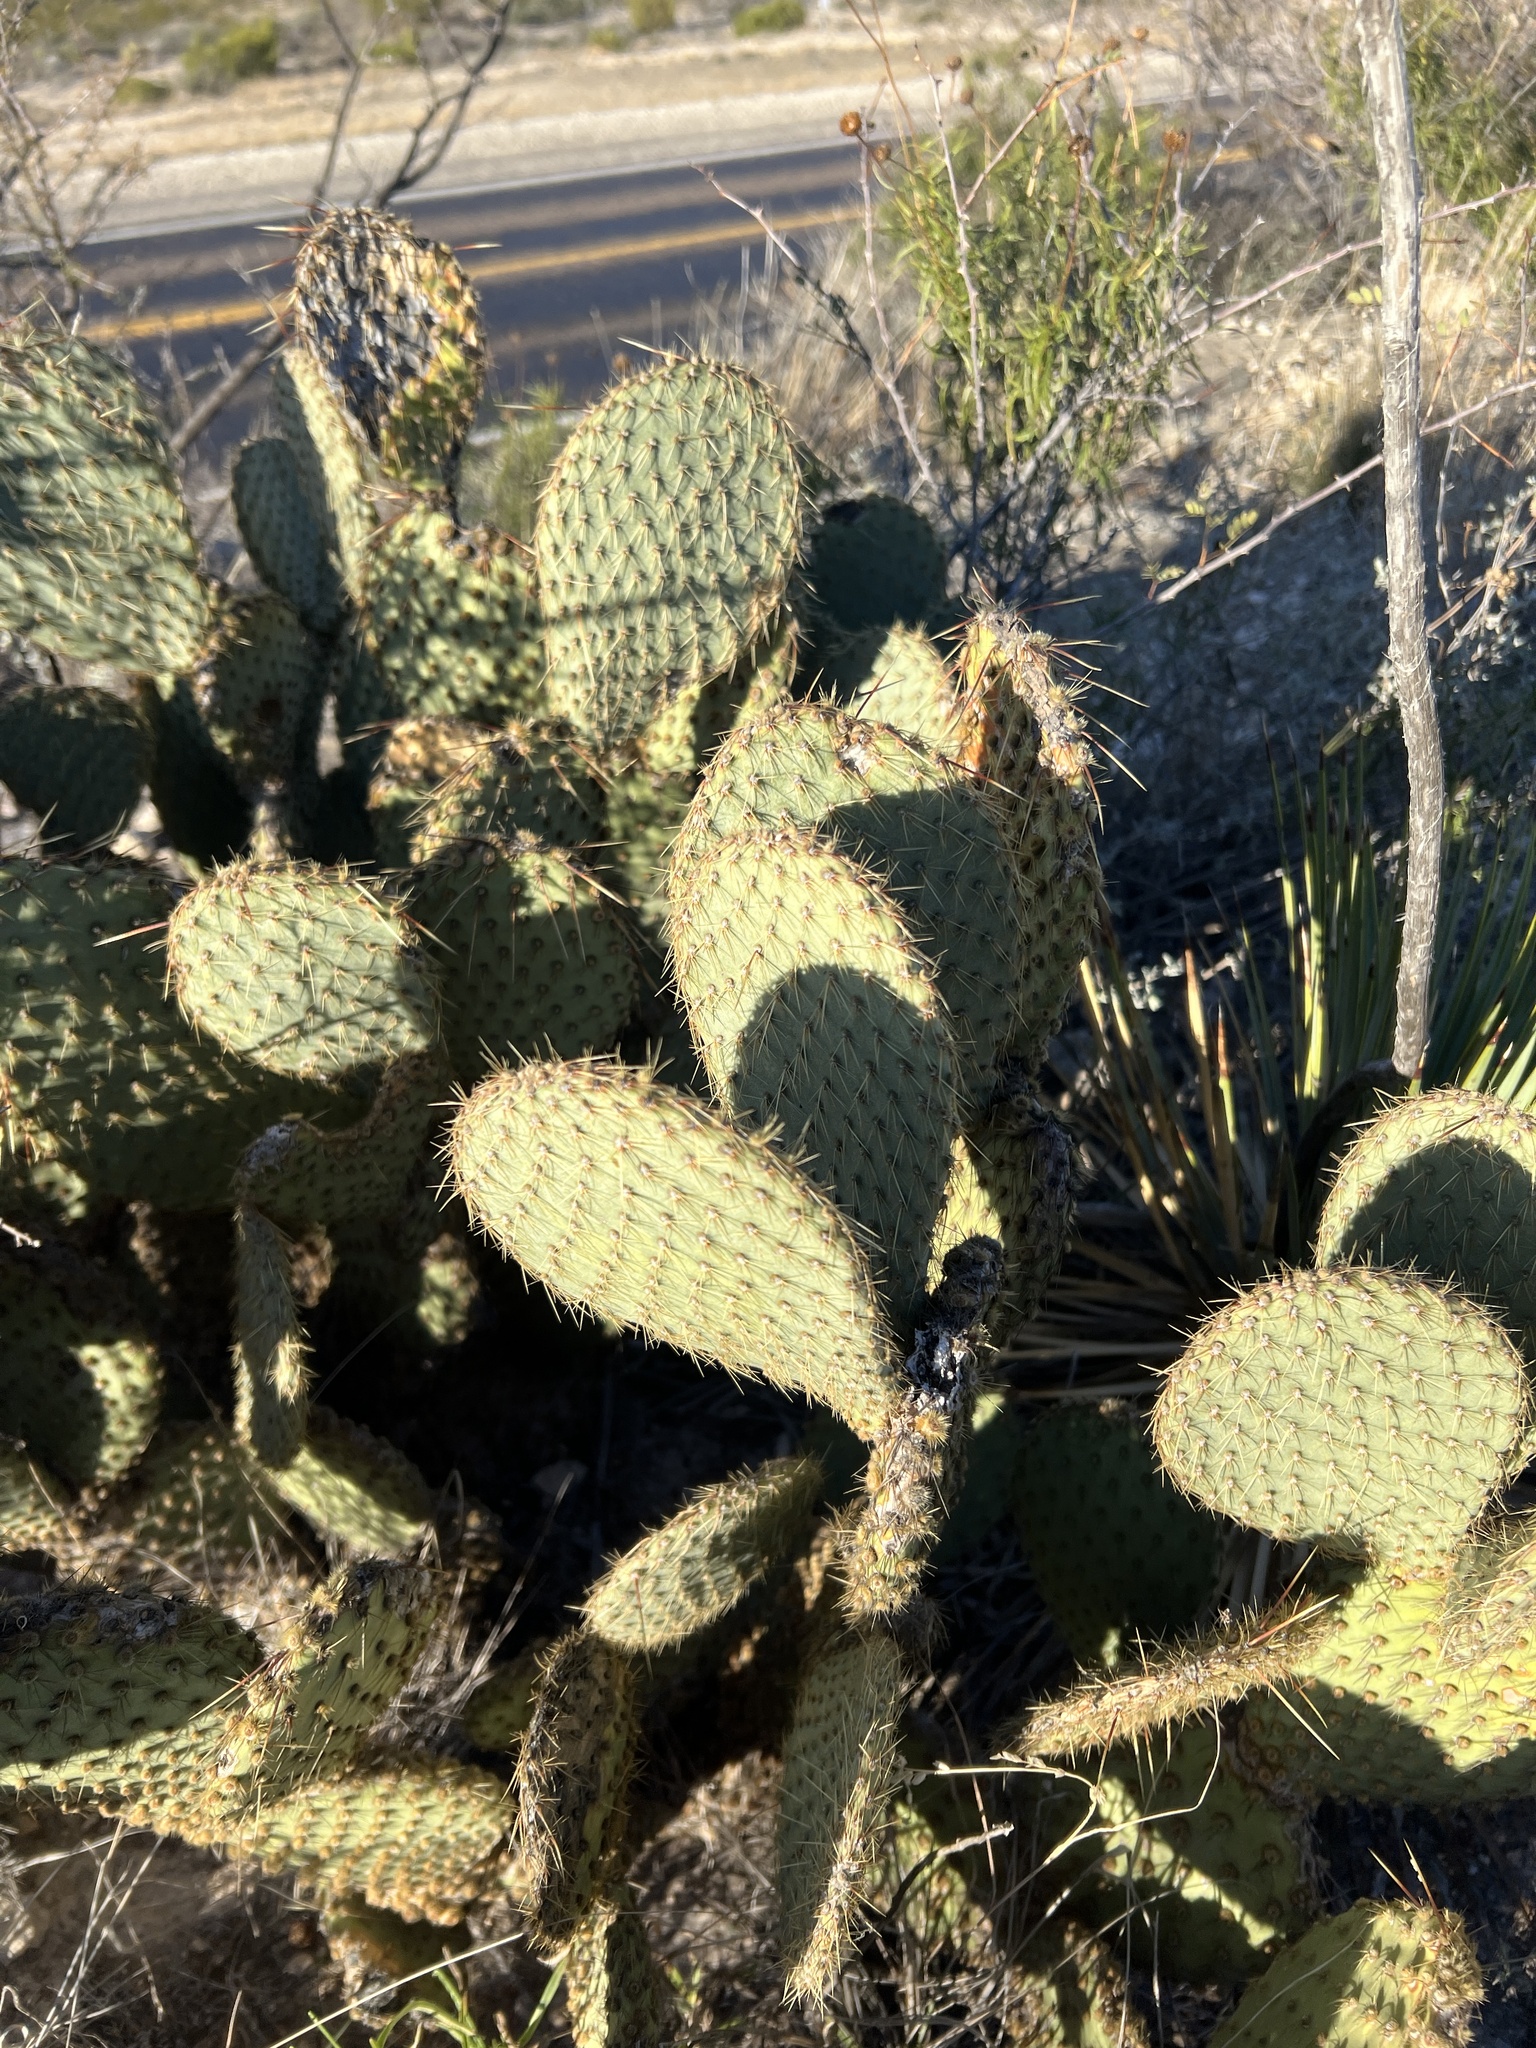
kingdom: Plantae
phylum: Tracheophyta
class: Magnoliopsida
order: Caryophyllales
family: Cactaceae
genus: Opuntia
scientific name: Opuntia strigil
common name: Marble-fruit prickly-pear
